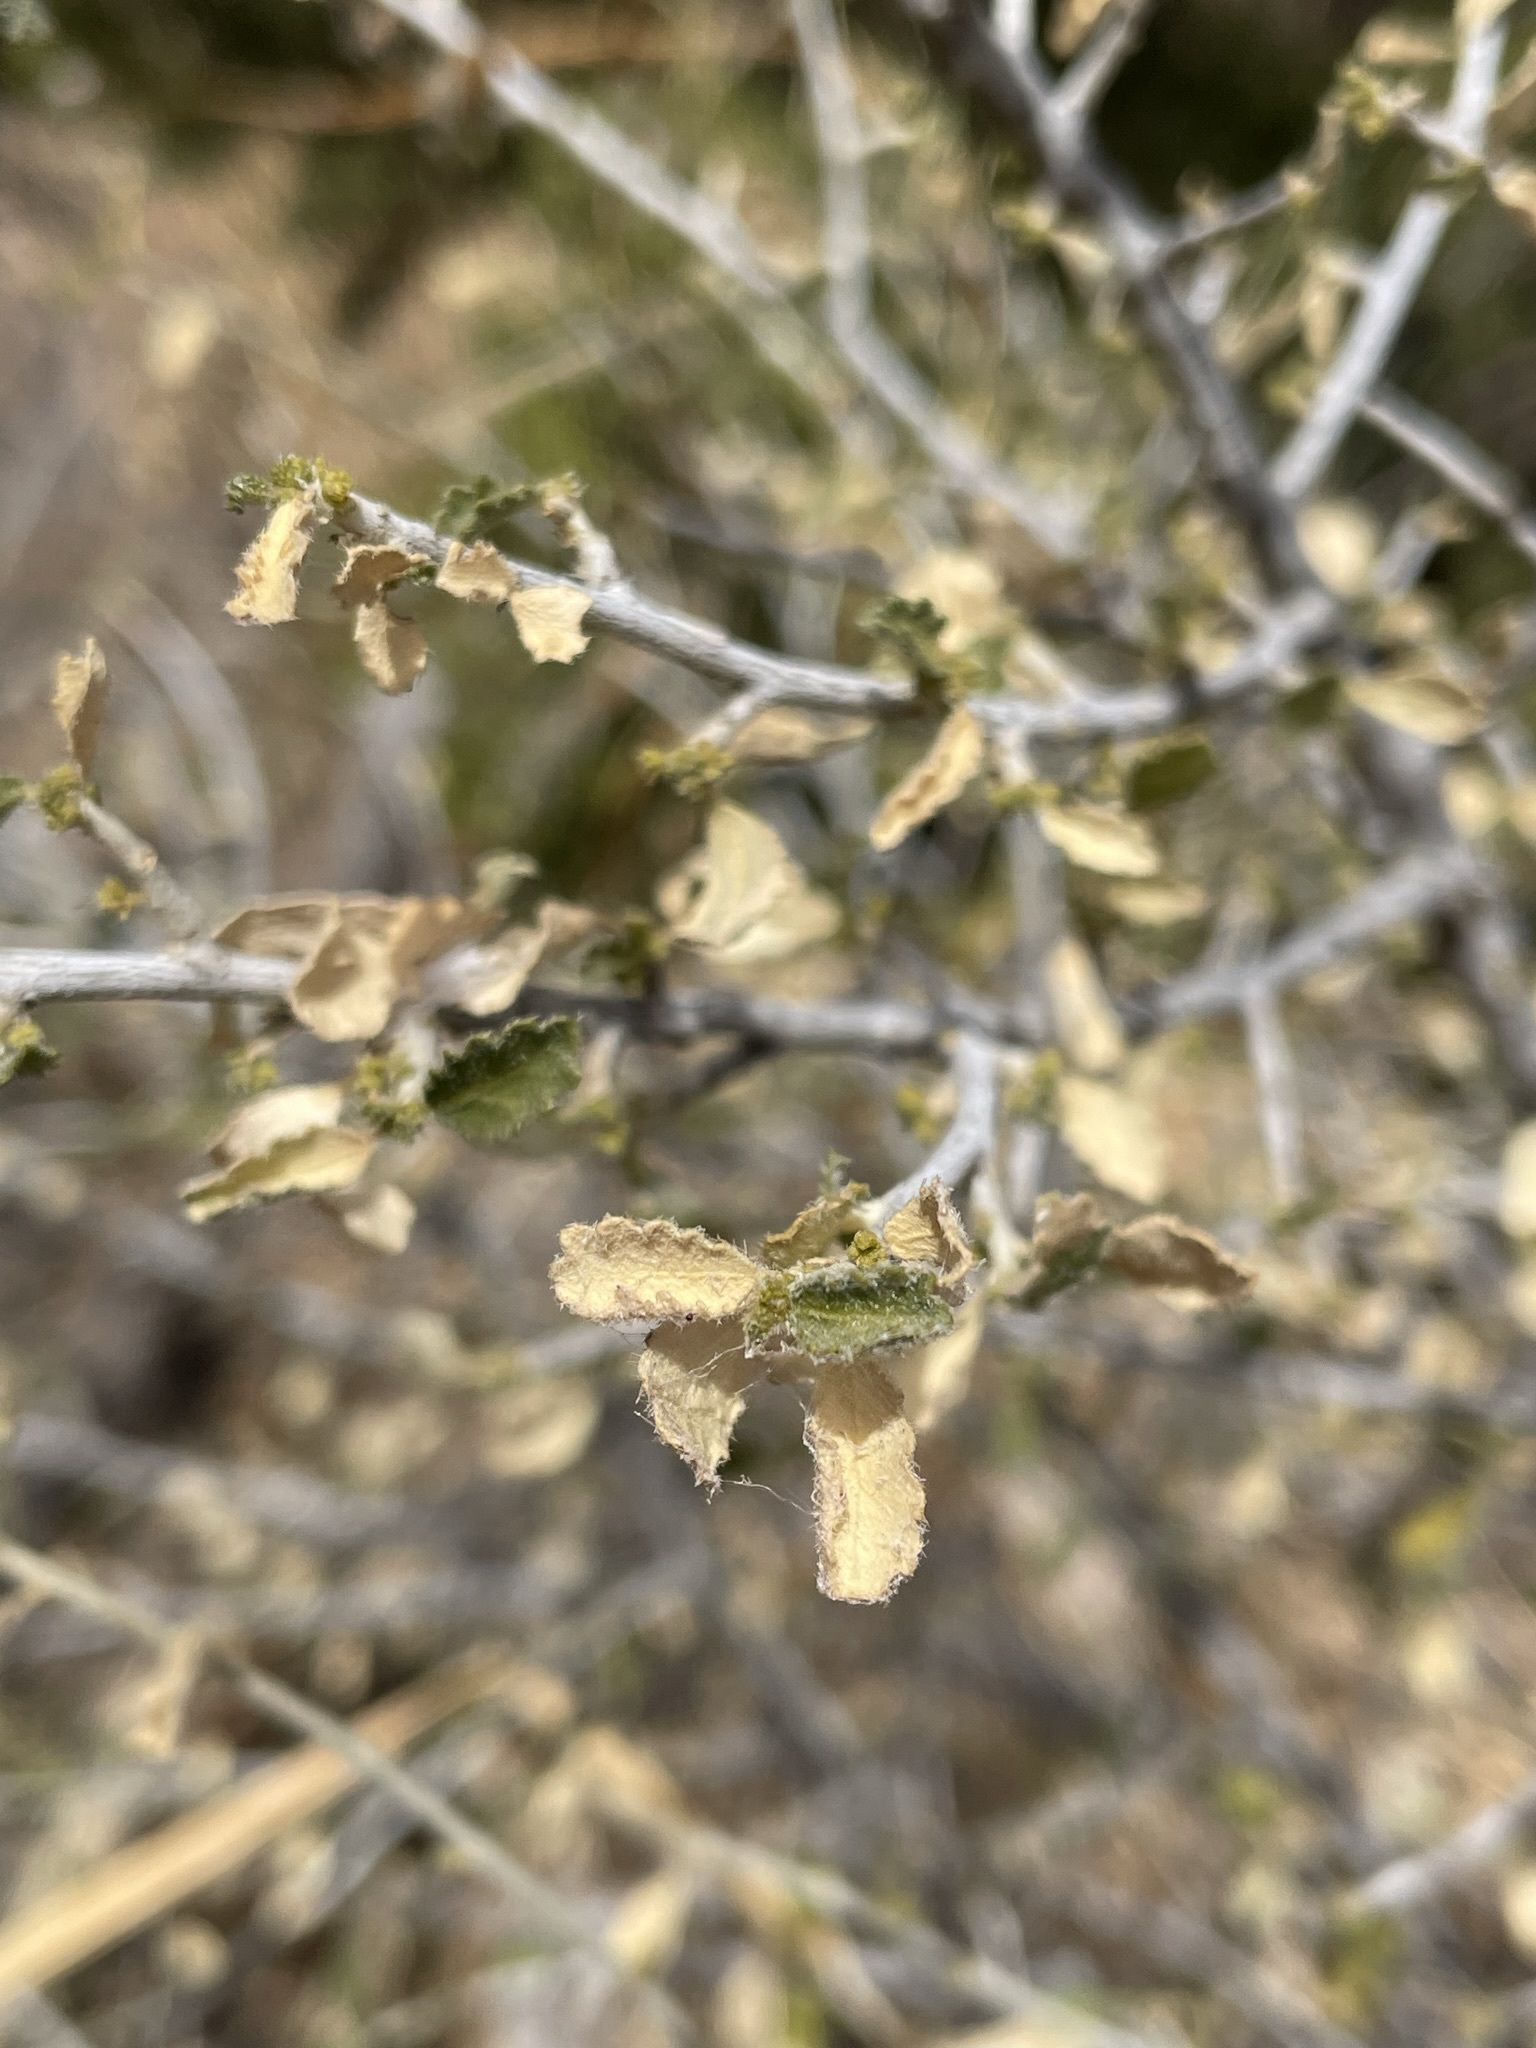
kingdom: Plantae
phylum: Tracheophyta
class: Magnoliopsida
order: Malpighiales
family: Euphorbiaceae
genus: Bernardia
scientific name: Bernardia obovata
